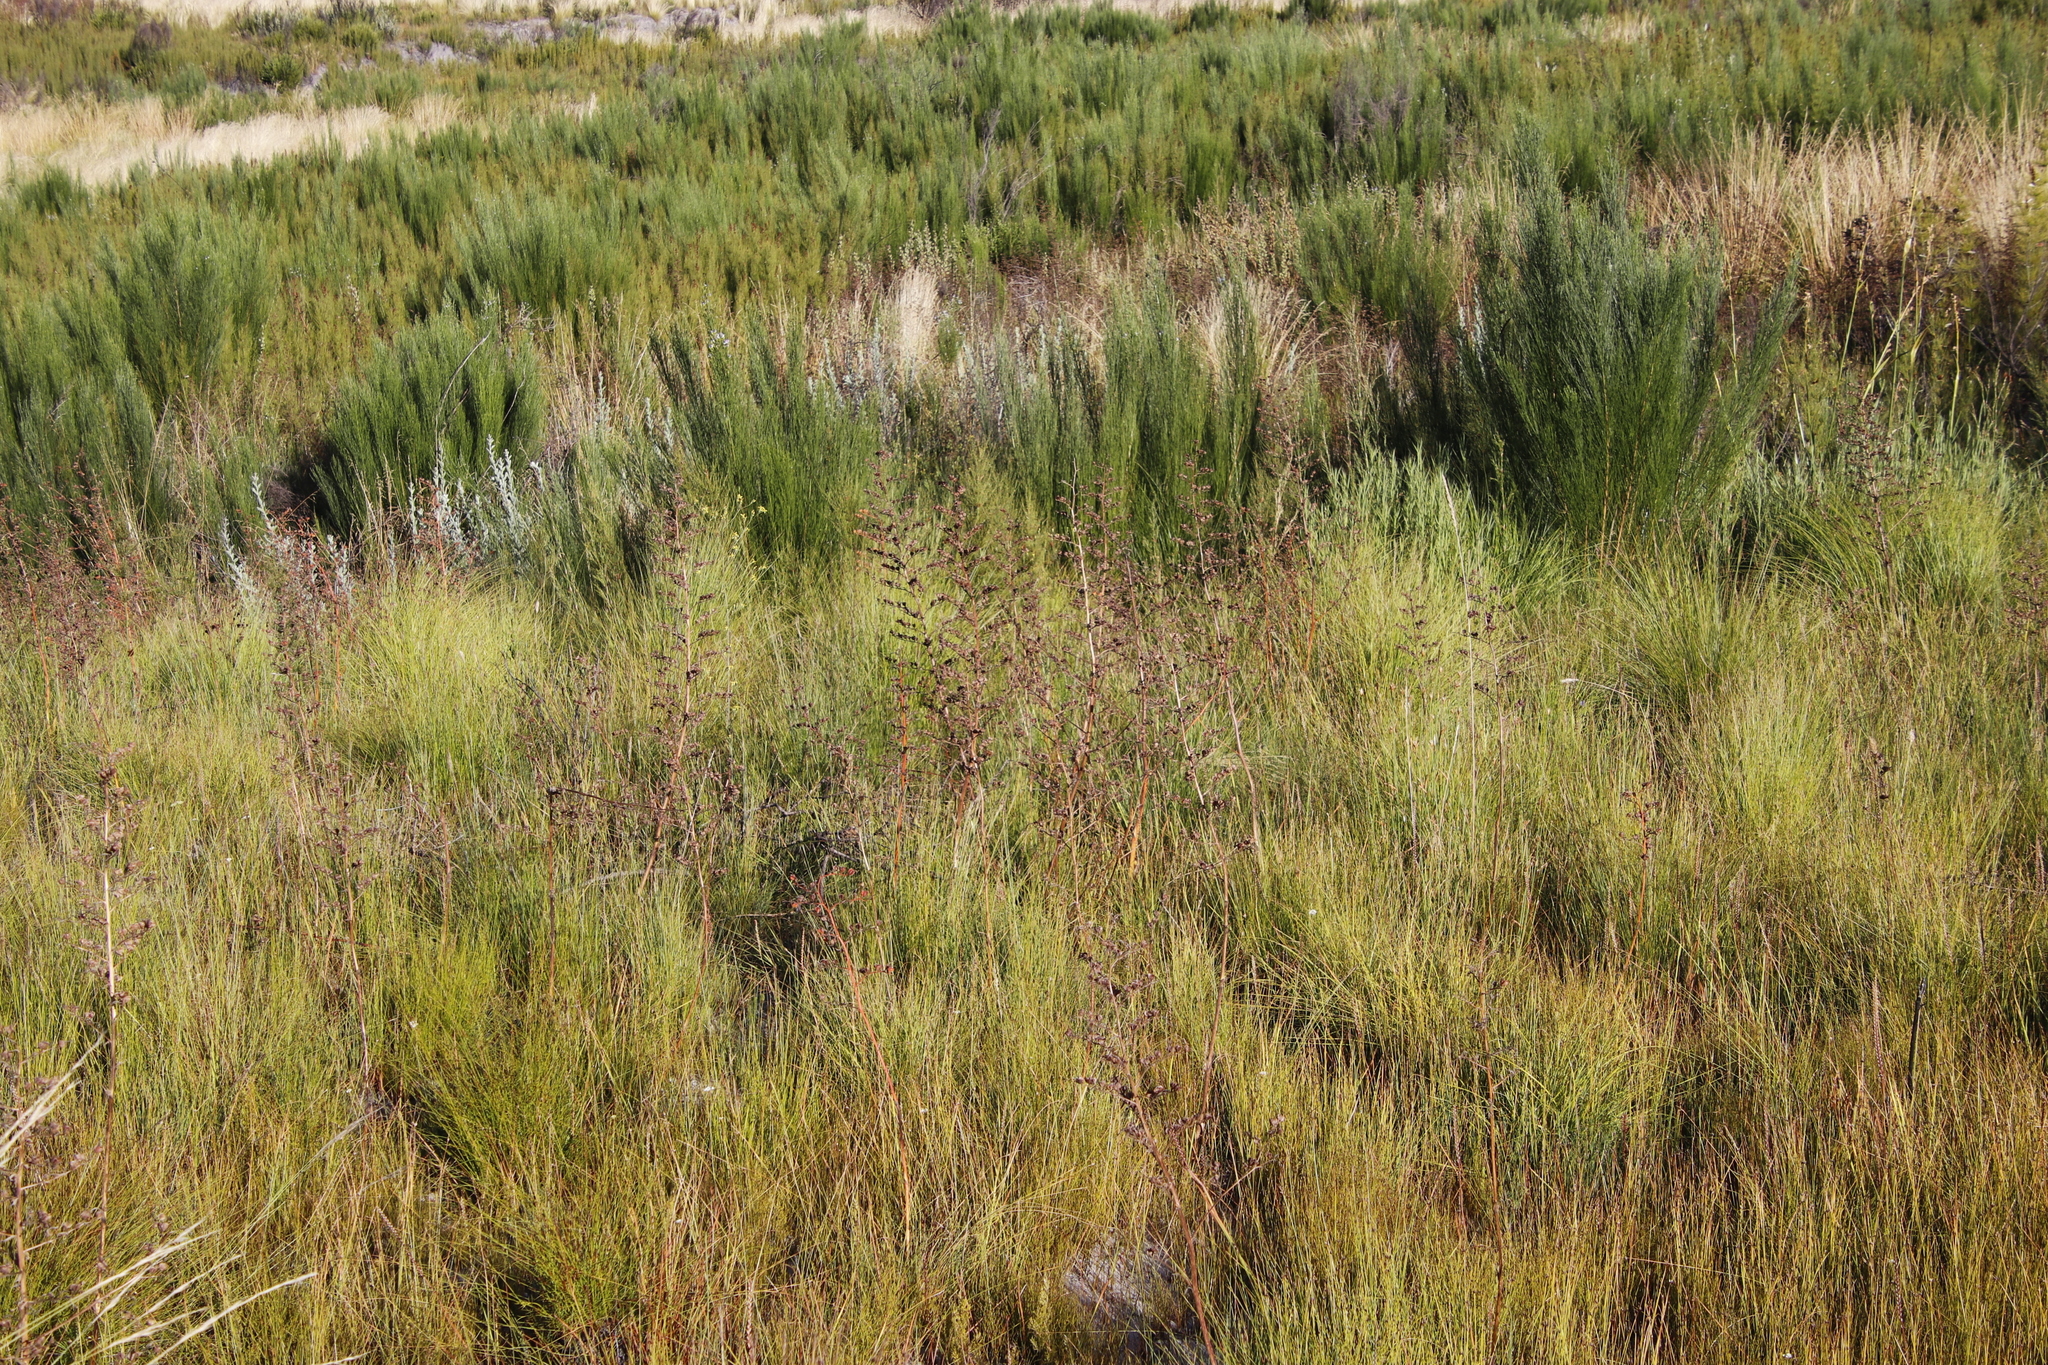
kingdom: Plantae
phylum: Tracheophyta
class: Liliopsida
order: Commelinales
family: Haemodoraceae
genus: Wachendorfia
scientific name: Wachendorfia paniculata
